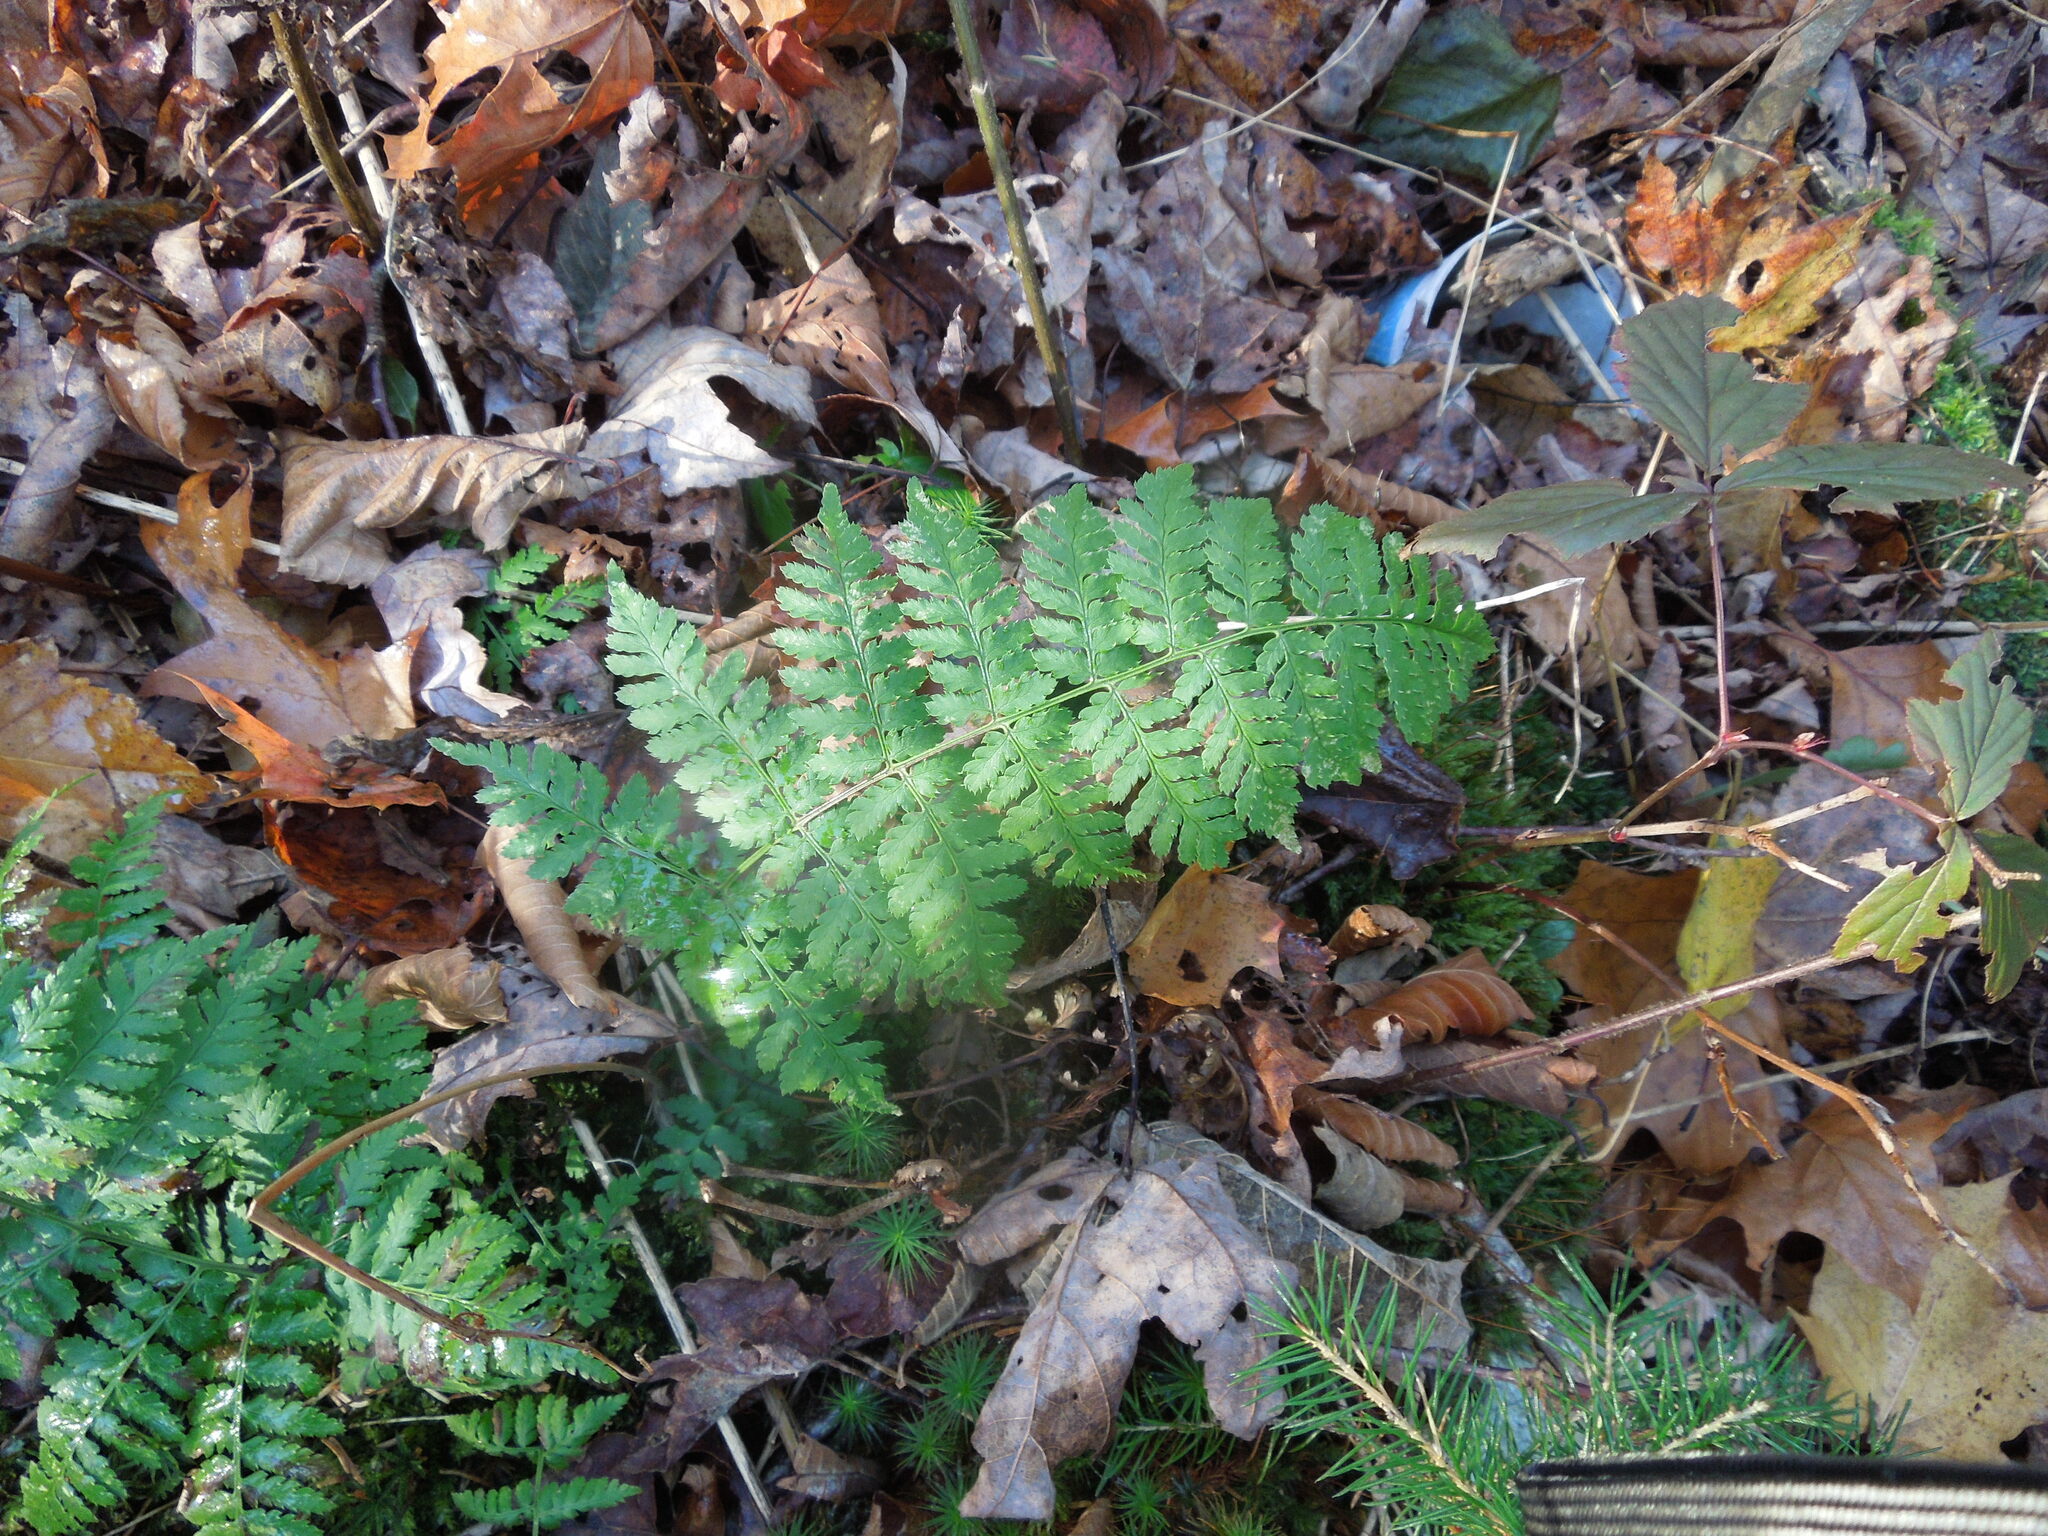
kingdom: Plantae
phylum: Tracheophyta
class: Polypodiopsida
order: Polypodiales
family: Dryopteridaceae
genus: Dryopteris
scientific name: Dryopteris intermedia
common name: Evergreen wood fern
